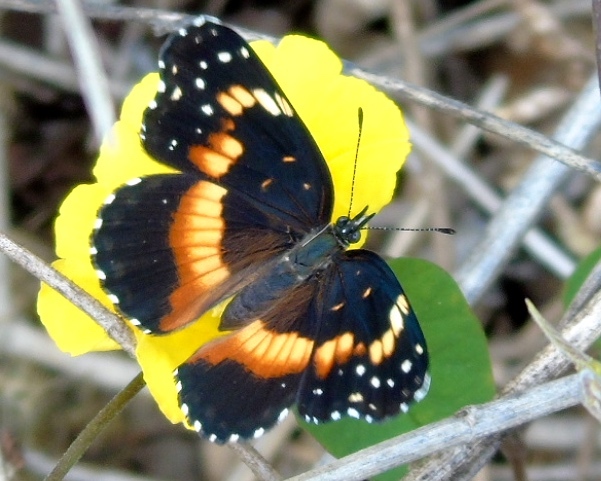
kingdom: Animalia
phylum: Arthropoda
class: Insecta
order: Lepidoptera
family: Nymphalidae
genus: Chlosyne
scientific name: Chlosyne lacinia
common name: Bordered patch
